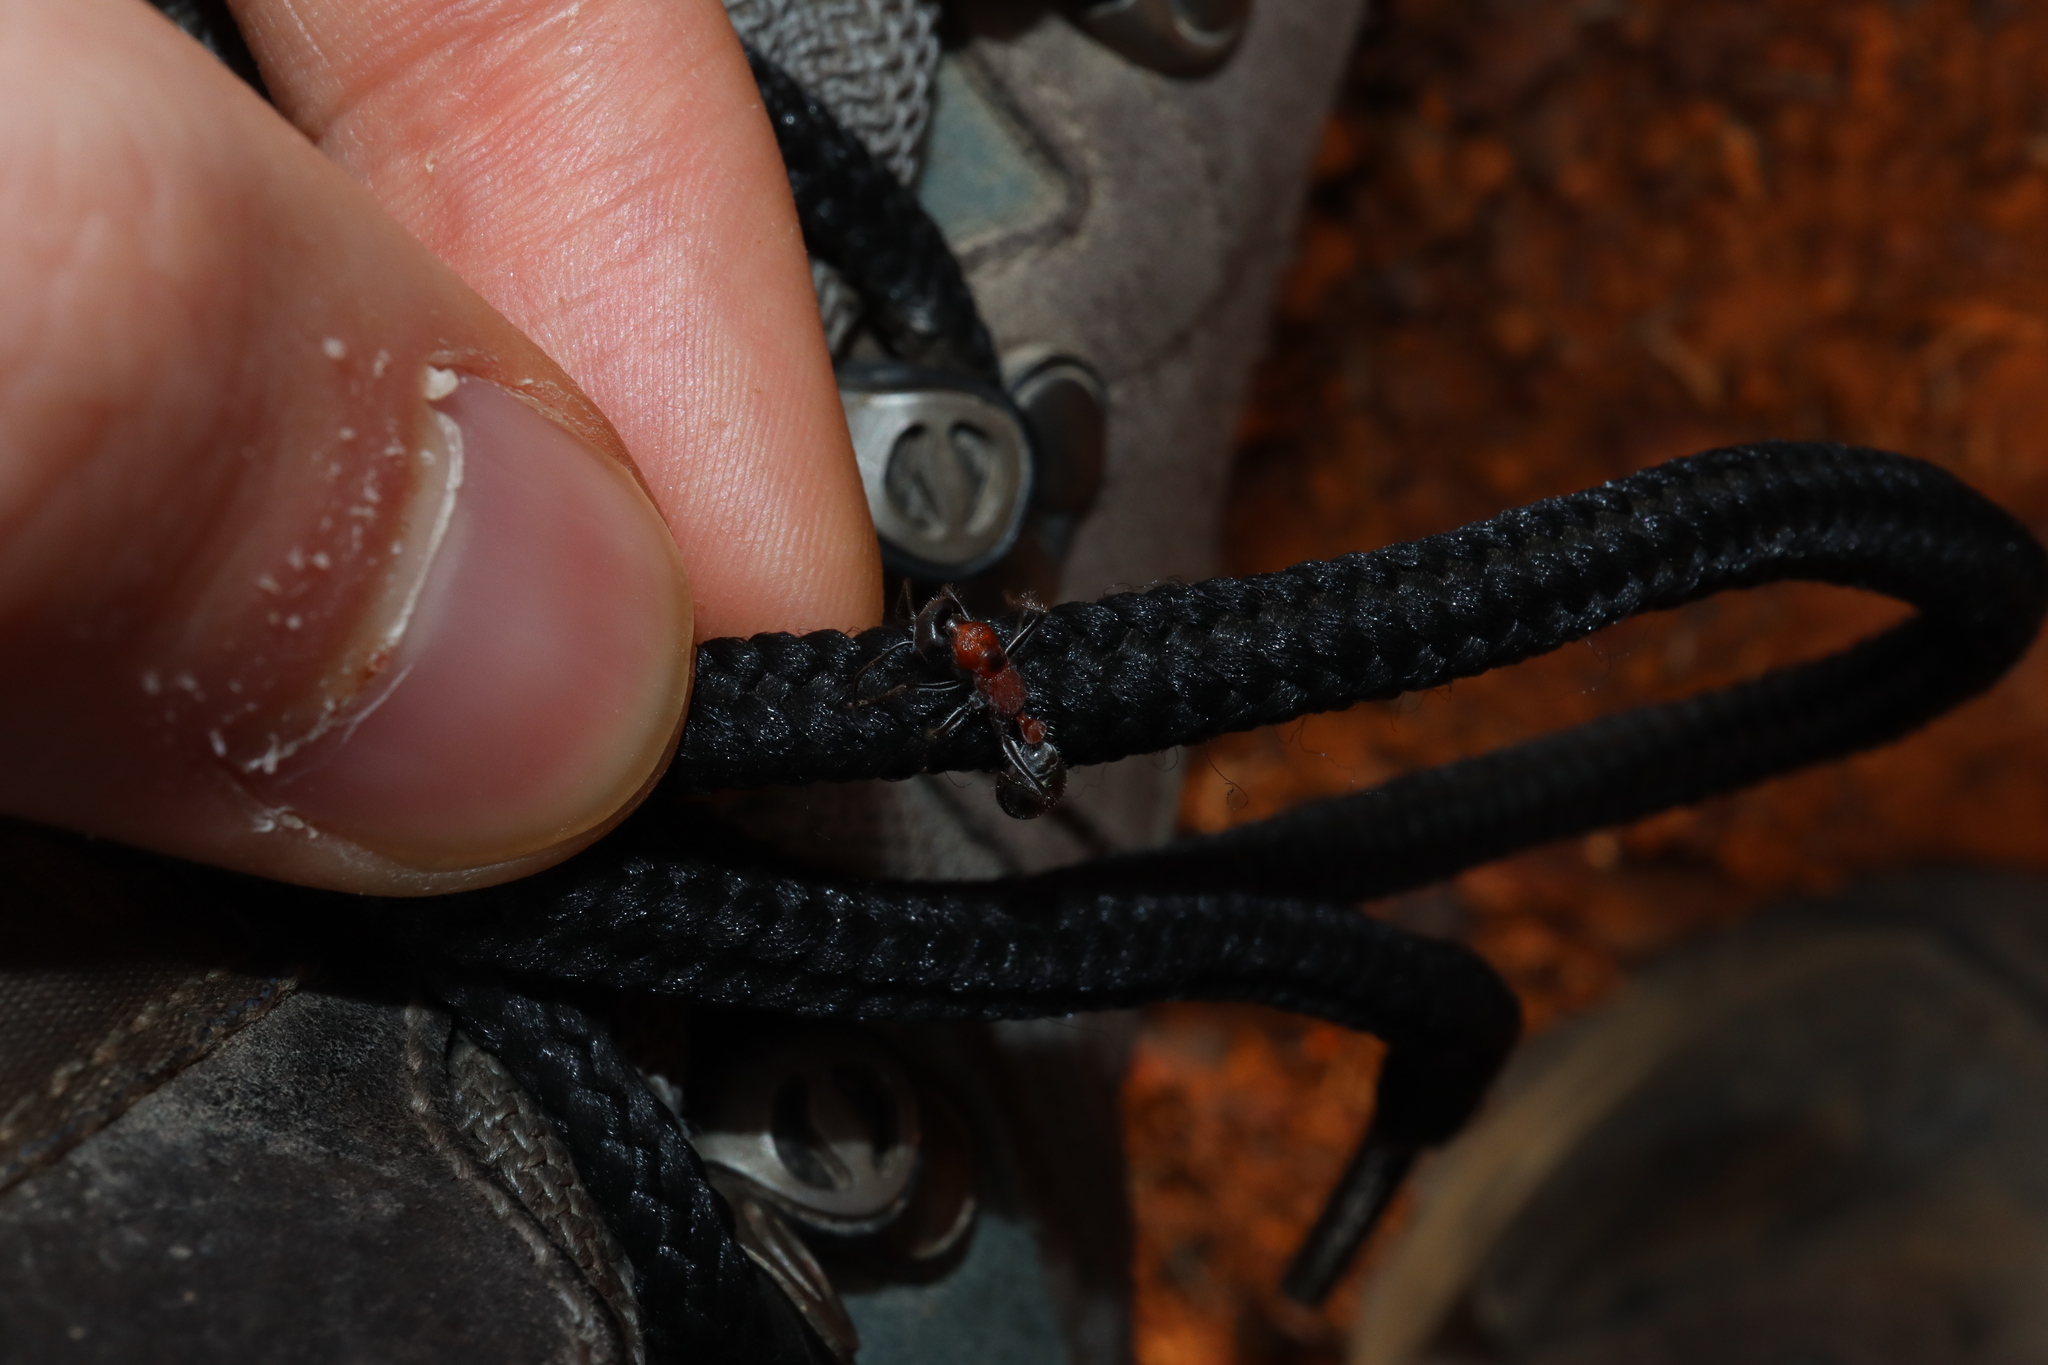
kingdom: Animalia
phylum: Arthropoda
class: Insecta
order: Hymenoptera
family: Formicidae
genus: Myrmecia
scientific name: Myrmecia chasei
